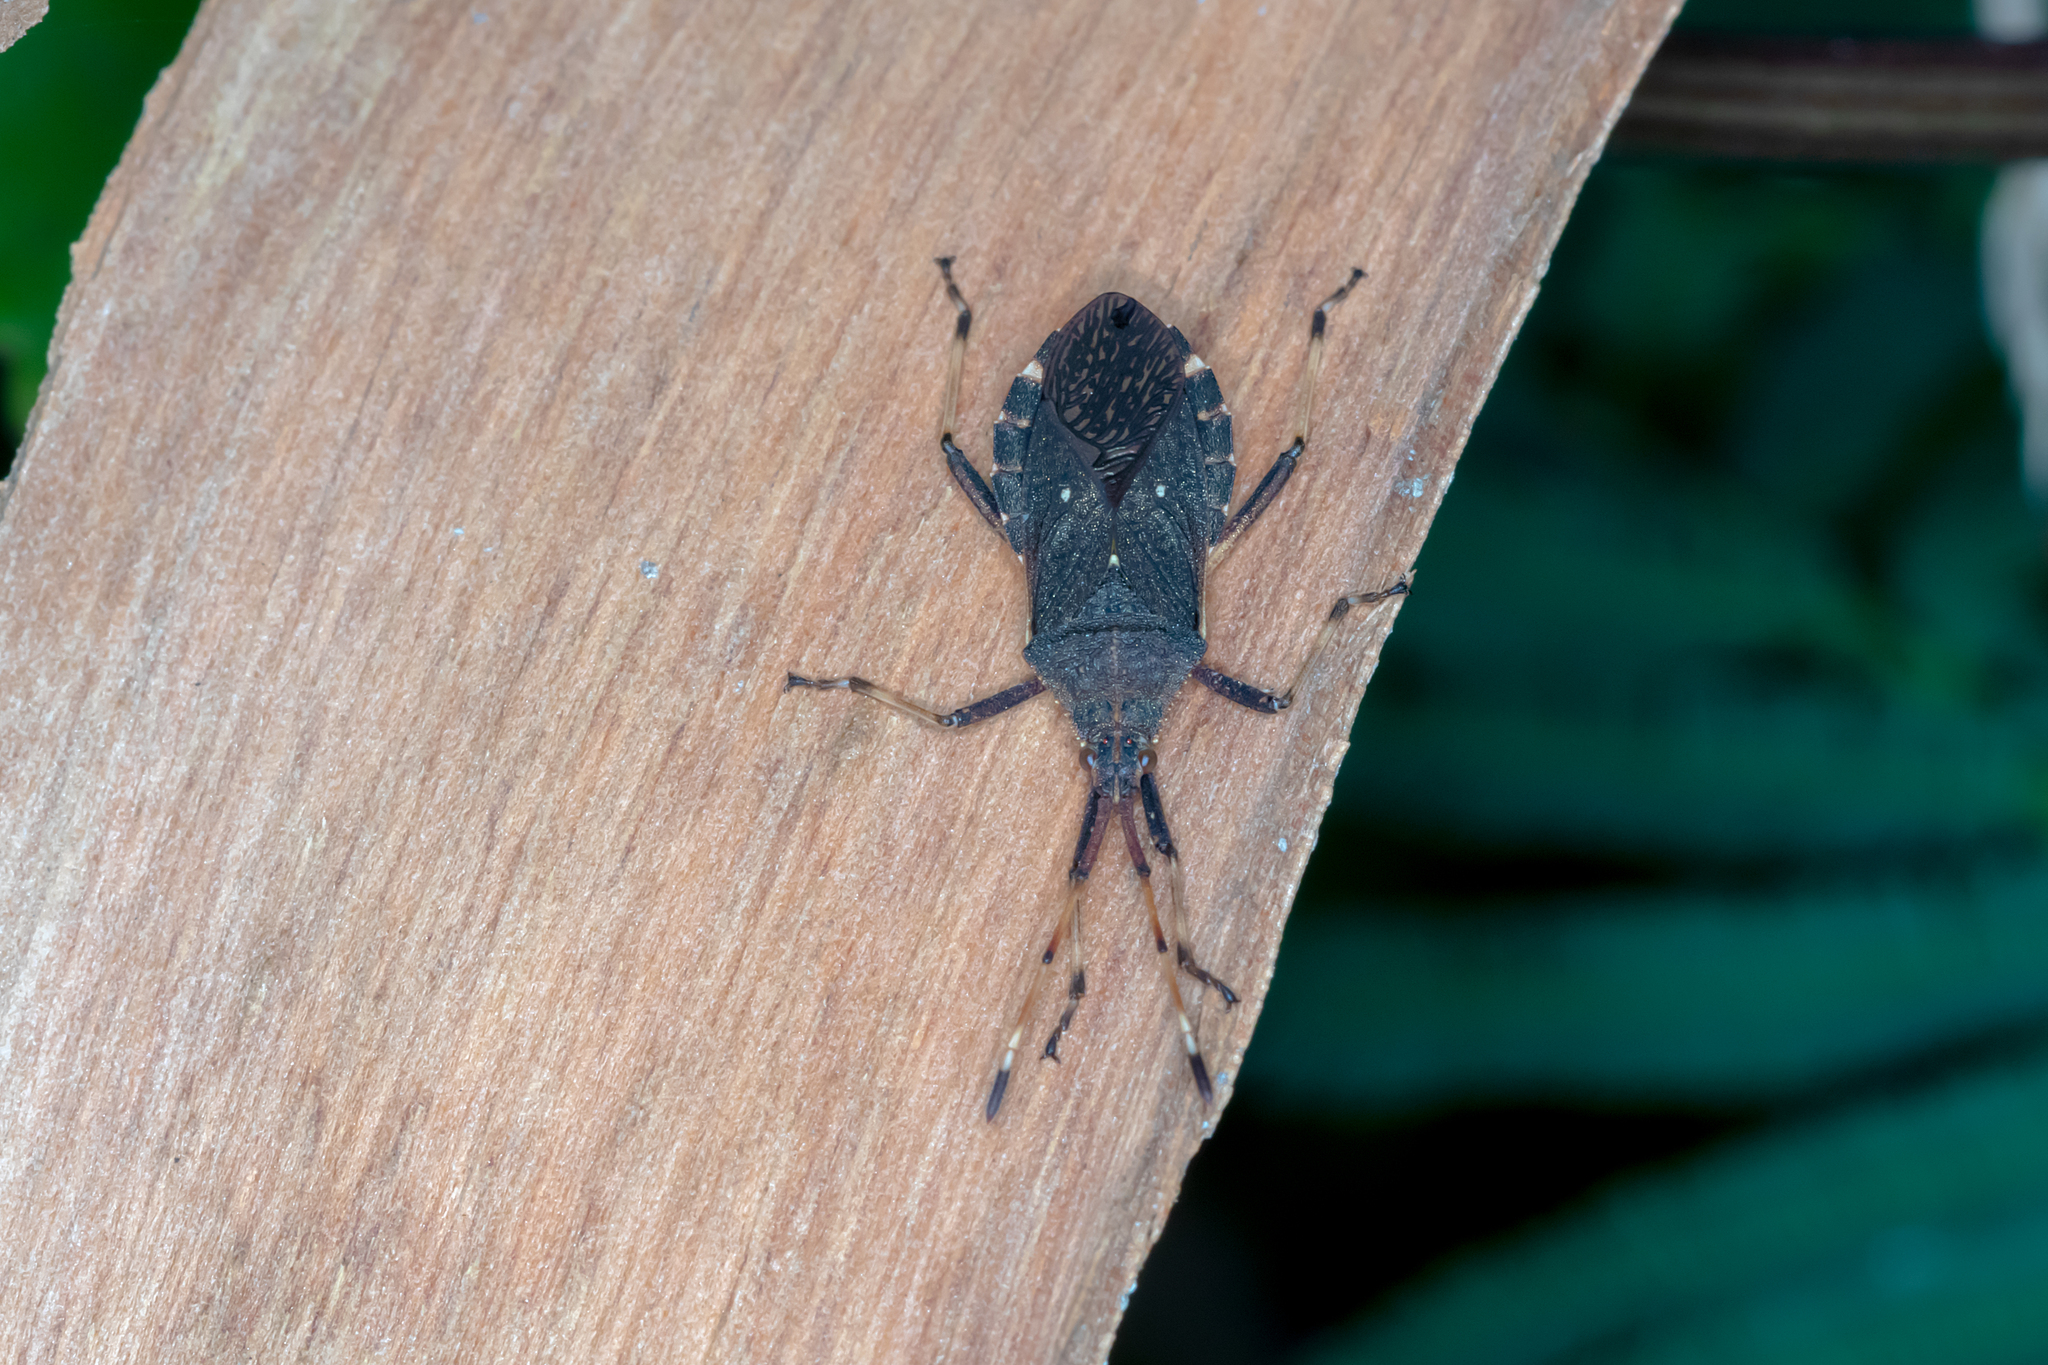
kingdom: Animalia
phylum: Arthropoda
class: Insecta
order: Hemiptera
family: Coreidae
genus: Gelonus
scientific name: Gelonus tasmanicus
